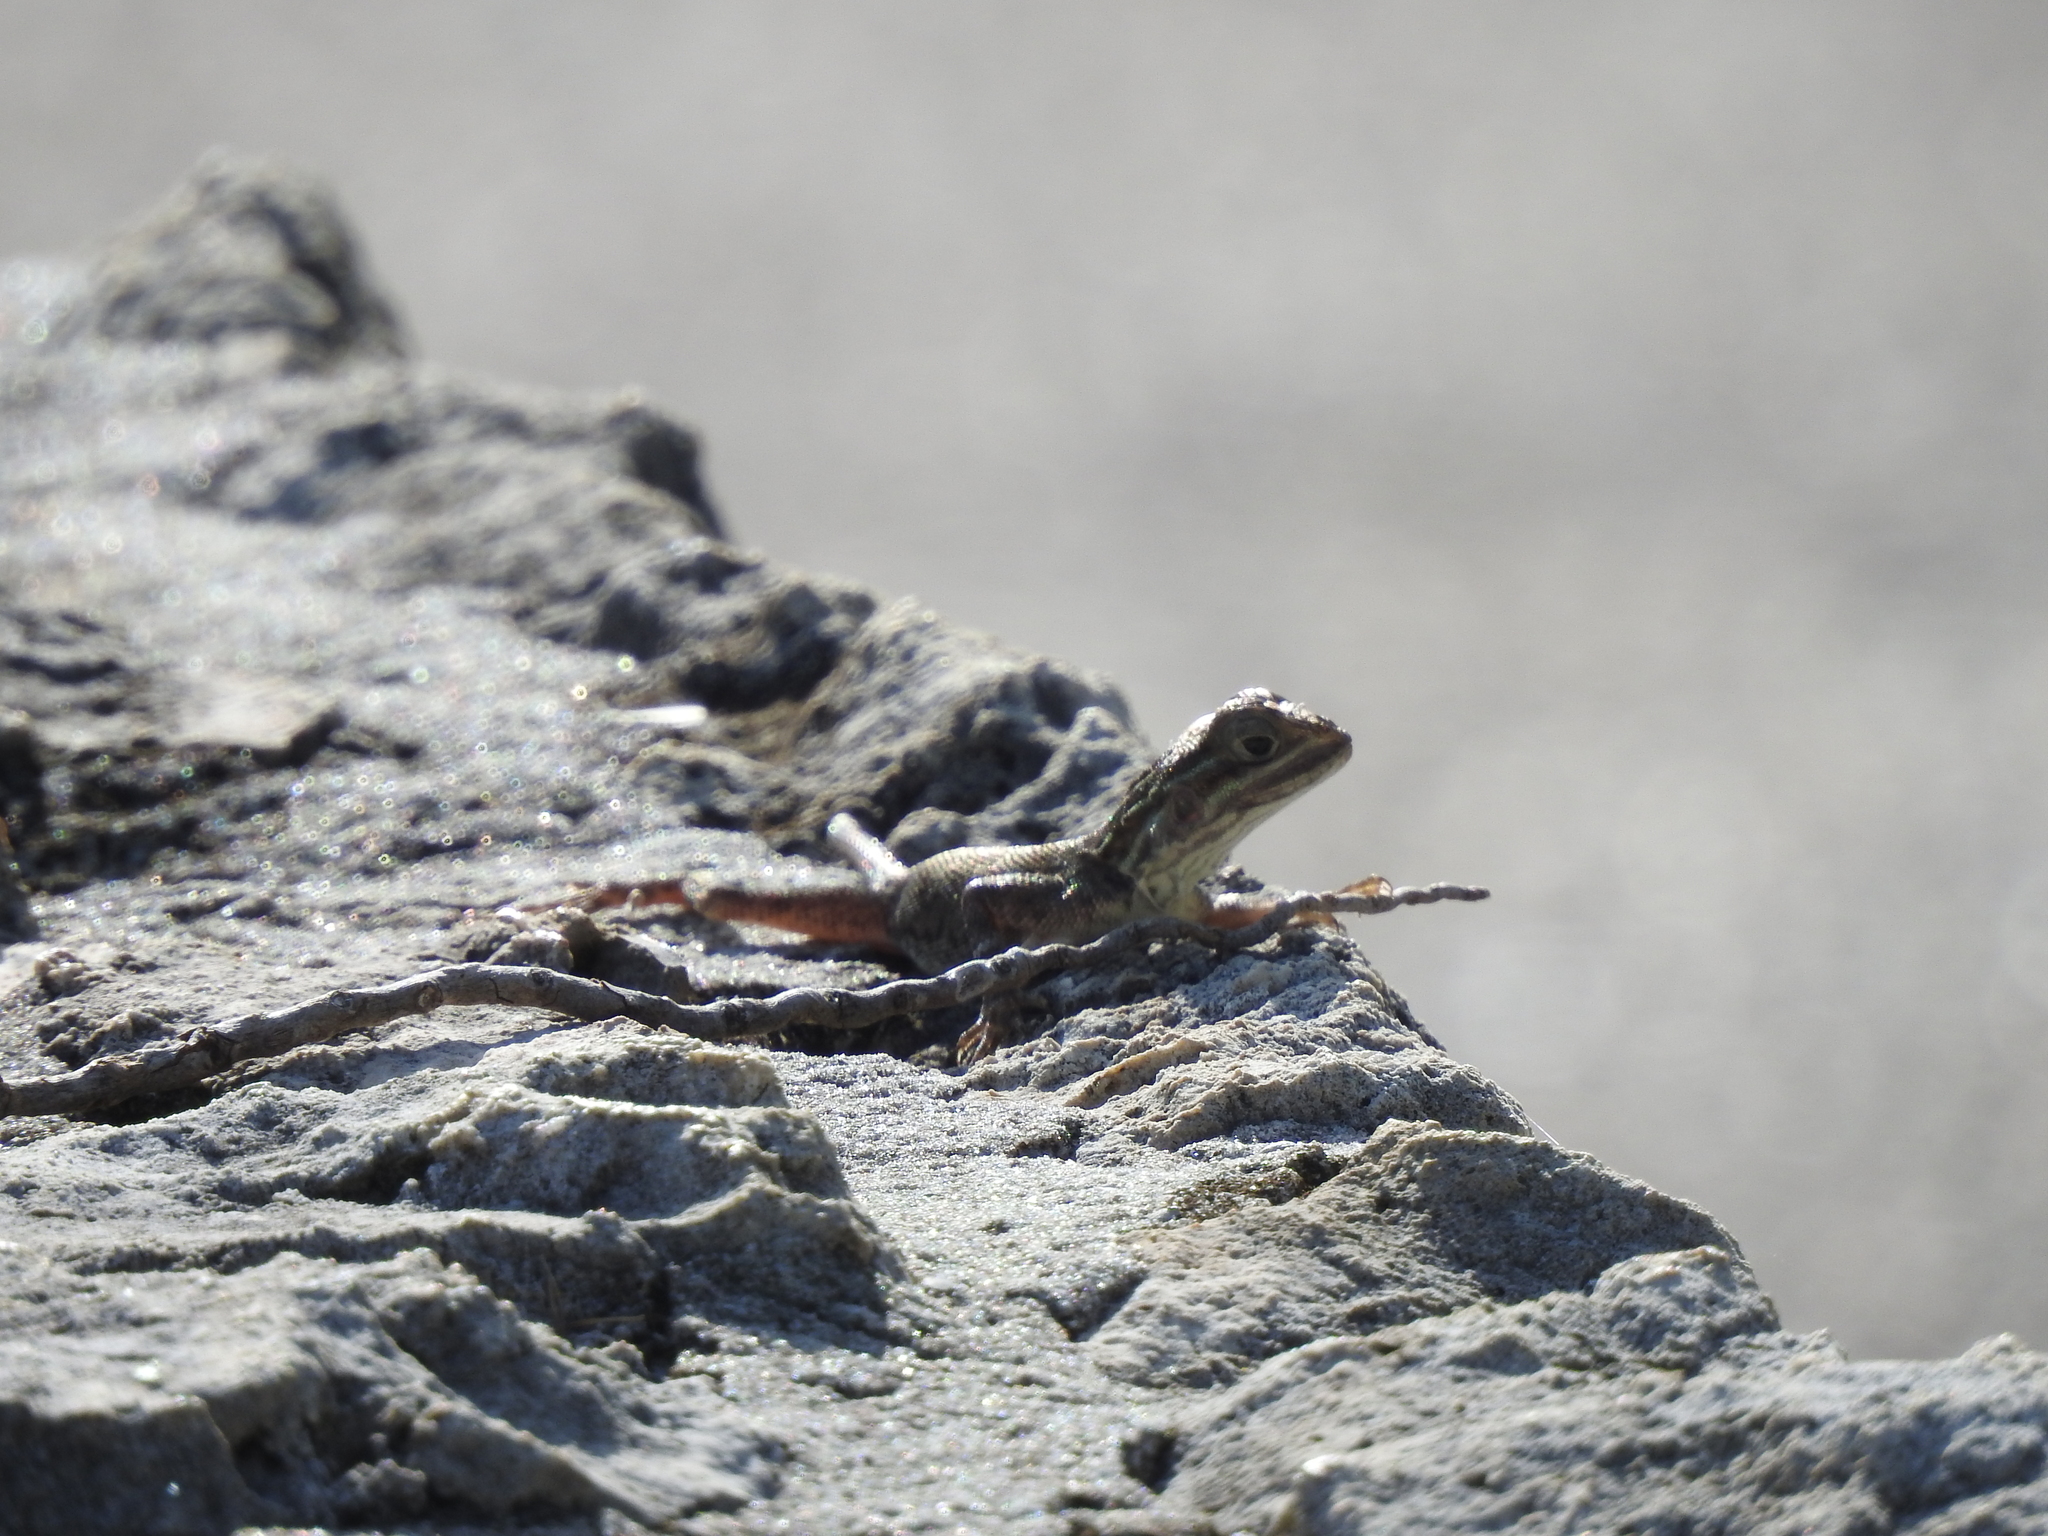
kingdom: Animalia
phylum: Chordata
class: Squamata
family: Agamidae
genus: Agama
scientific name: Agama picticauda
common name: Red-headed agama
